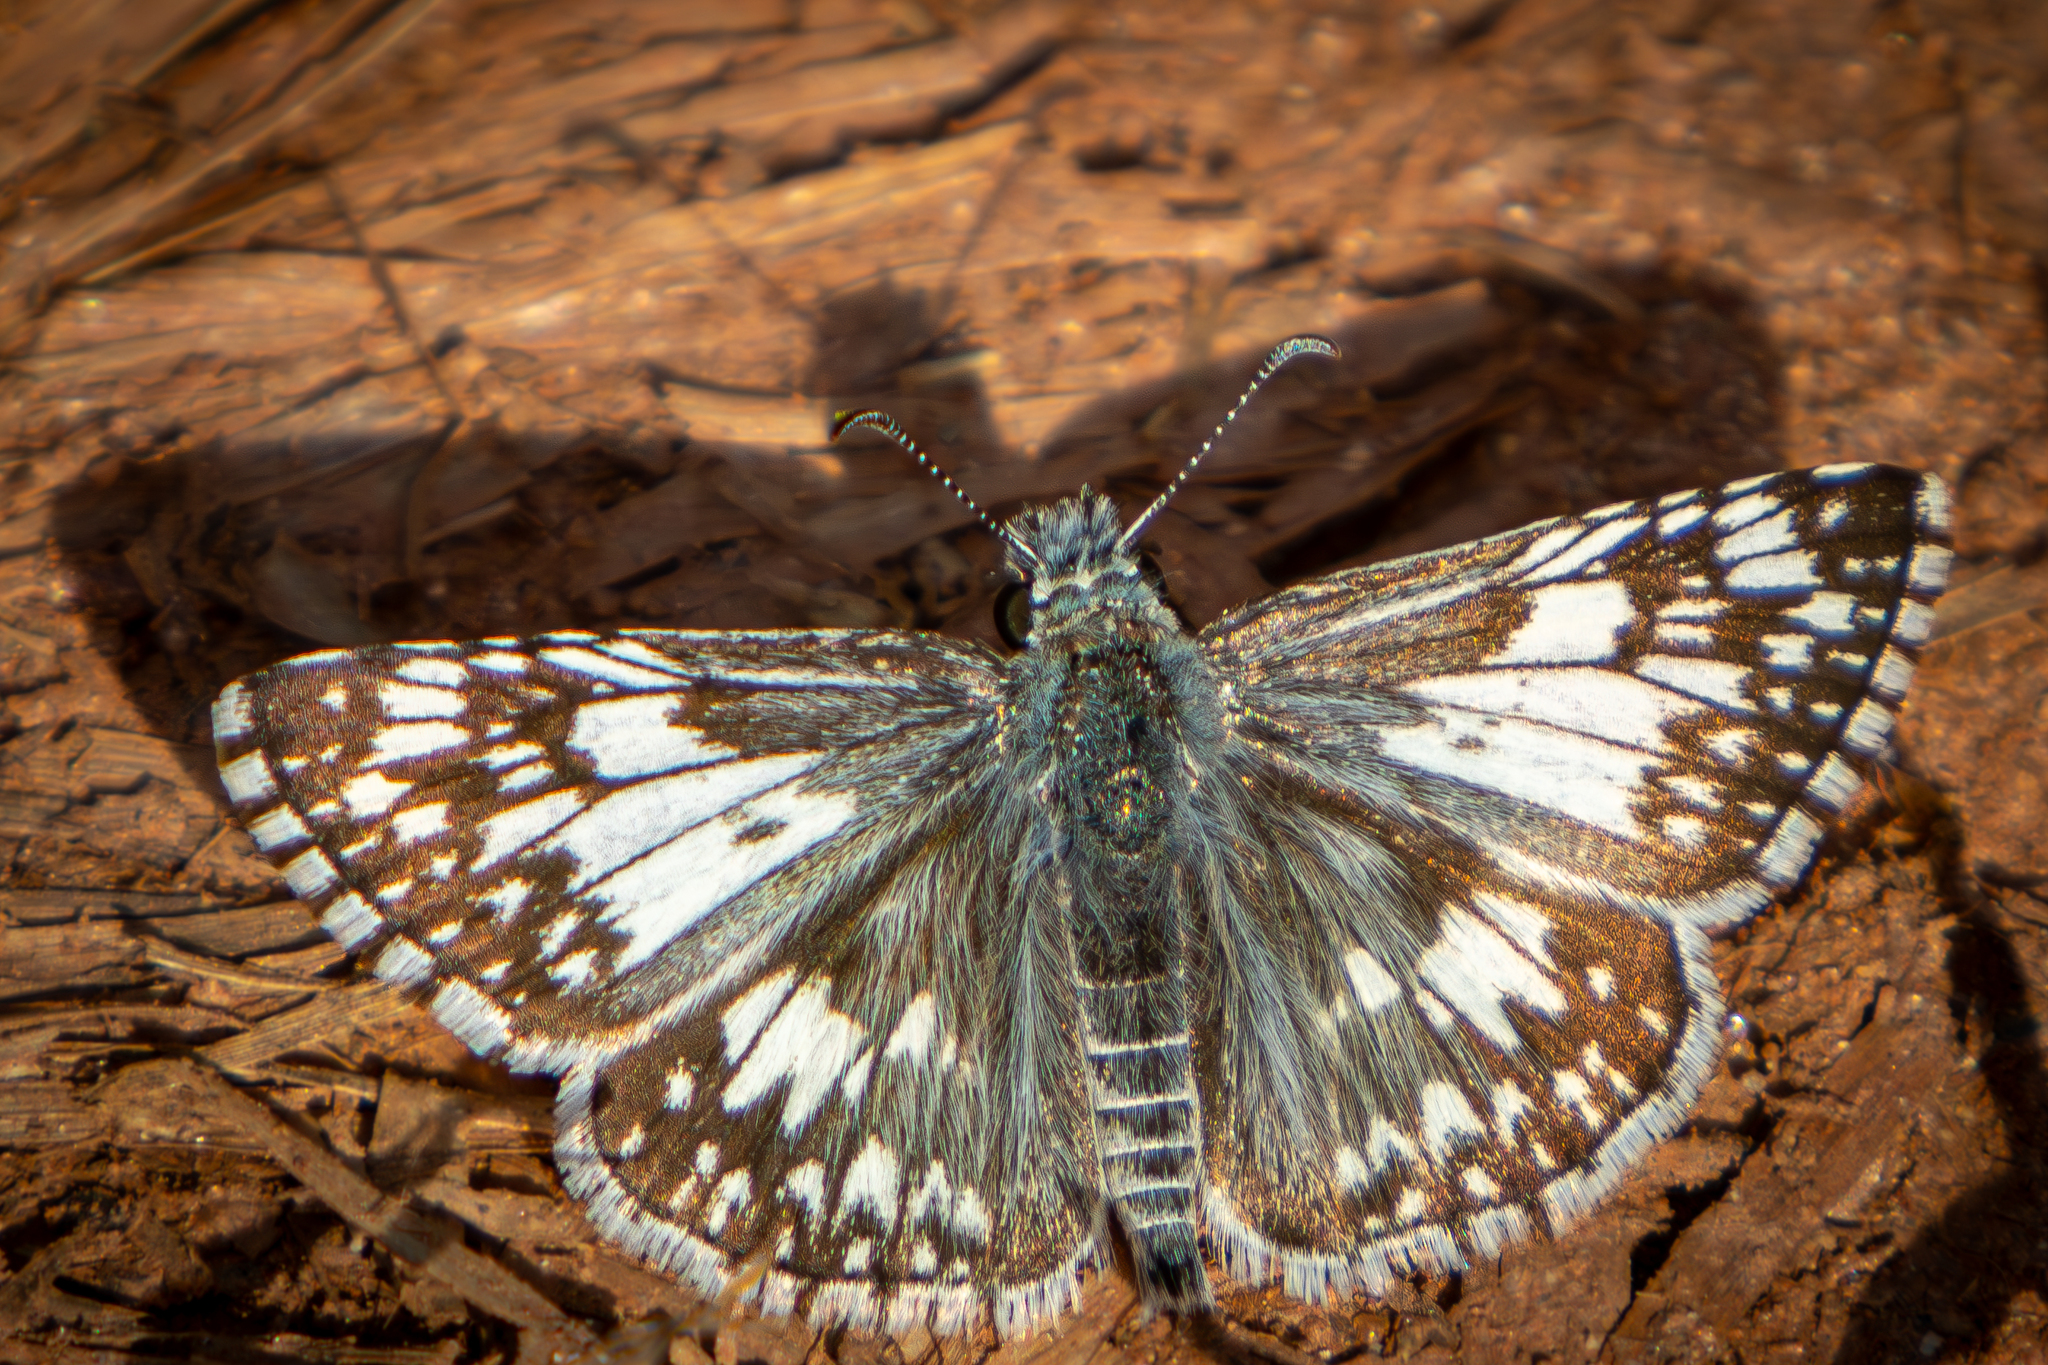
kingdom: Animalia
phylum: Arthropoda
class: Insecta
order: Lepidoptera
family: Hesperiidae
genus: Burnsius
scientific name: Burnsius communis
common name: Common checkered-skipper
